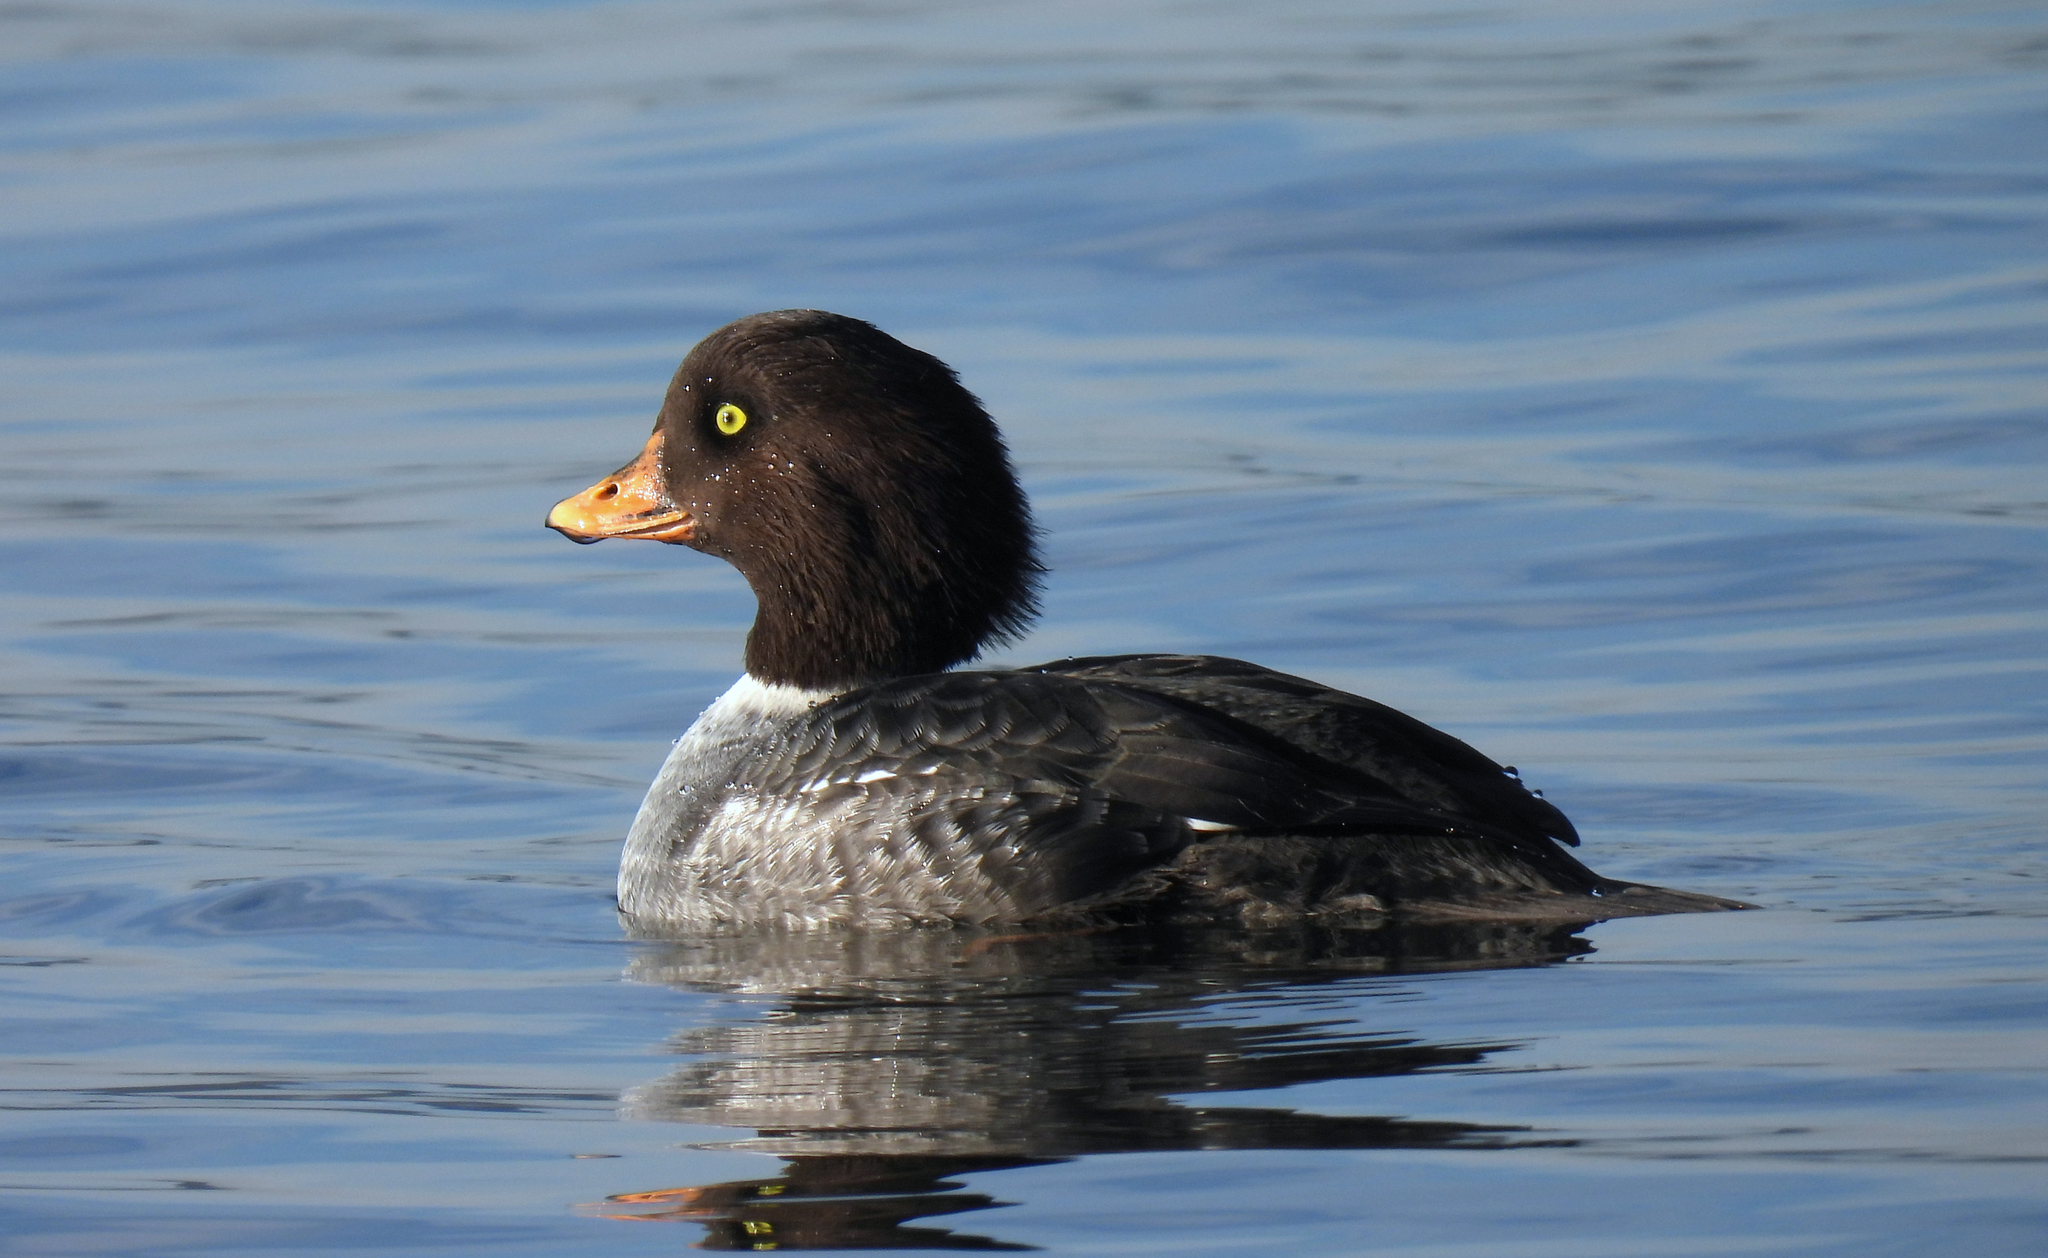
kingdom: Animalia
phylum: Chordata
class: Aves
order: Anseriformes
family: Anatidae
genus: Bucephala
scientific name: Bucephala islandica
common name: Barrow's goldeneye
